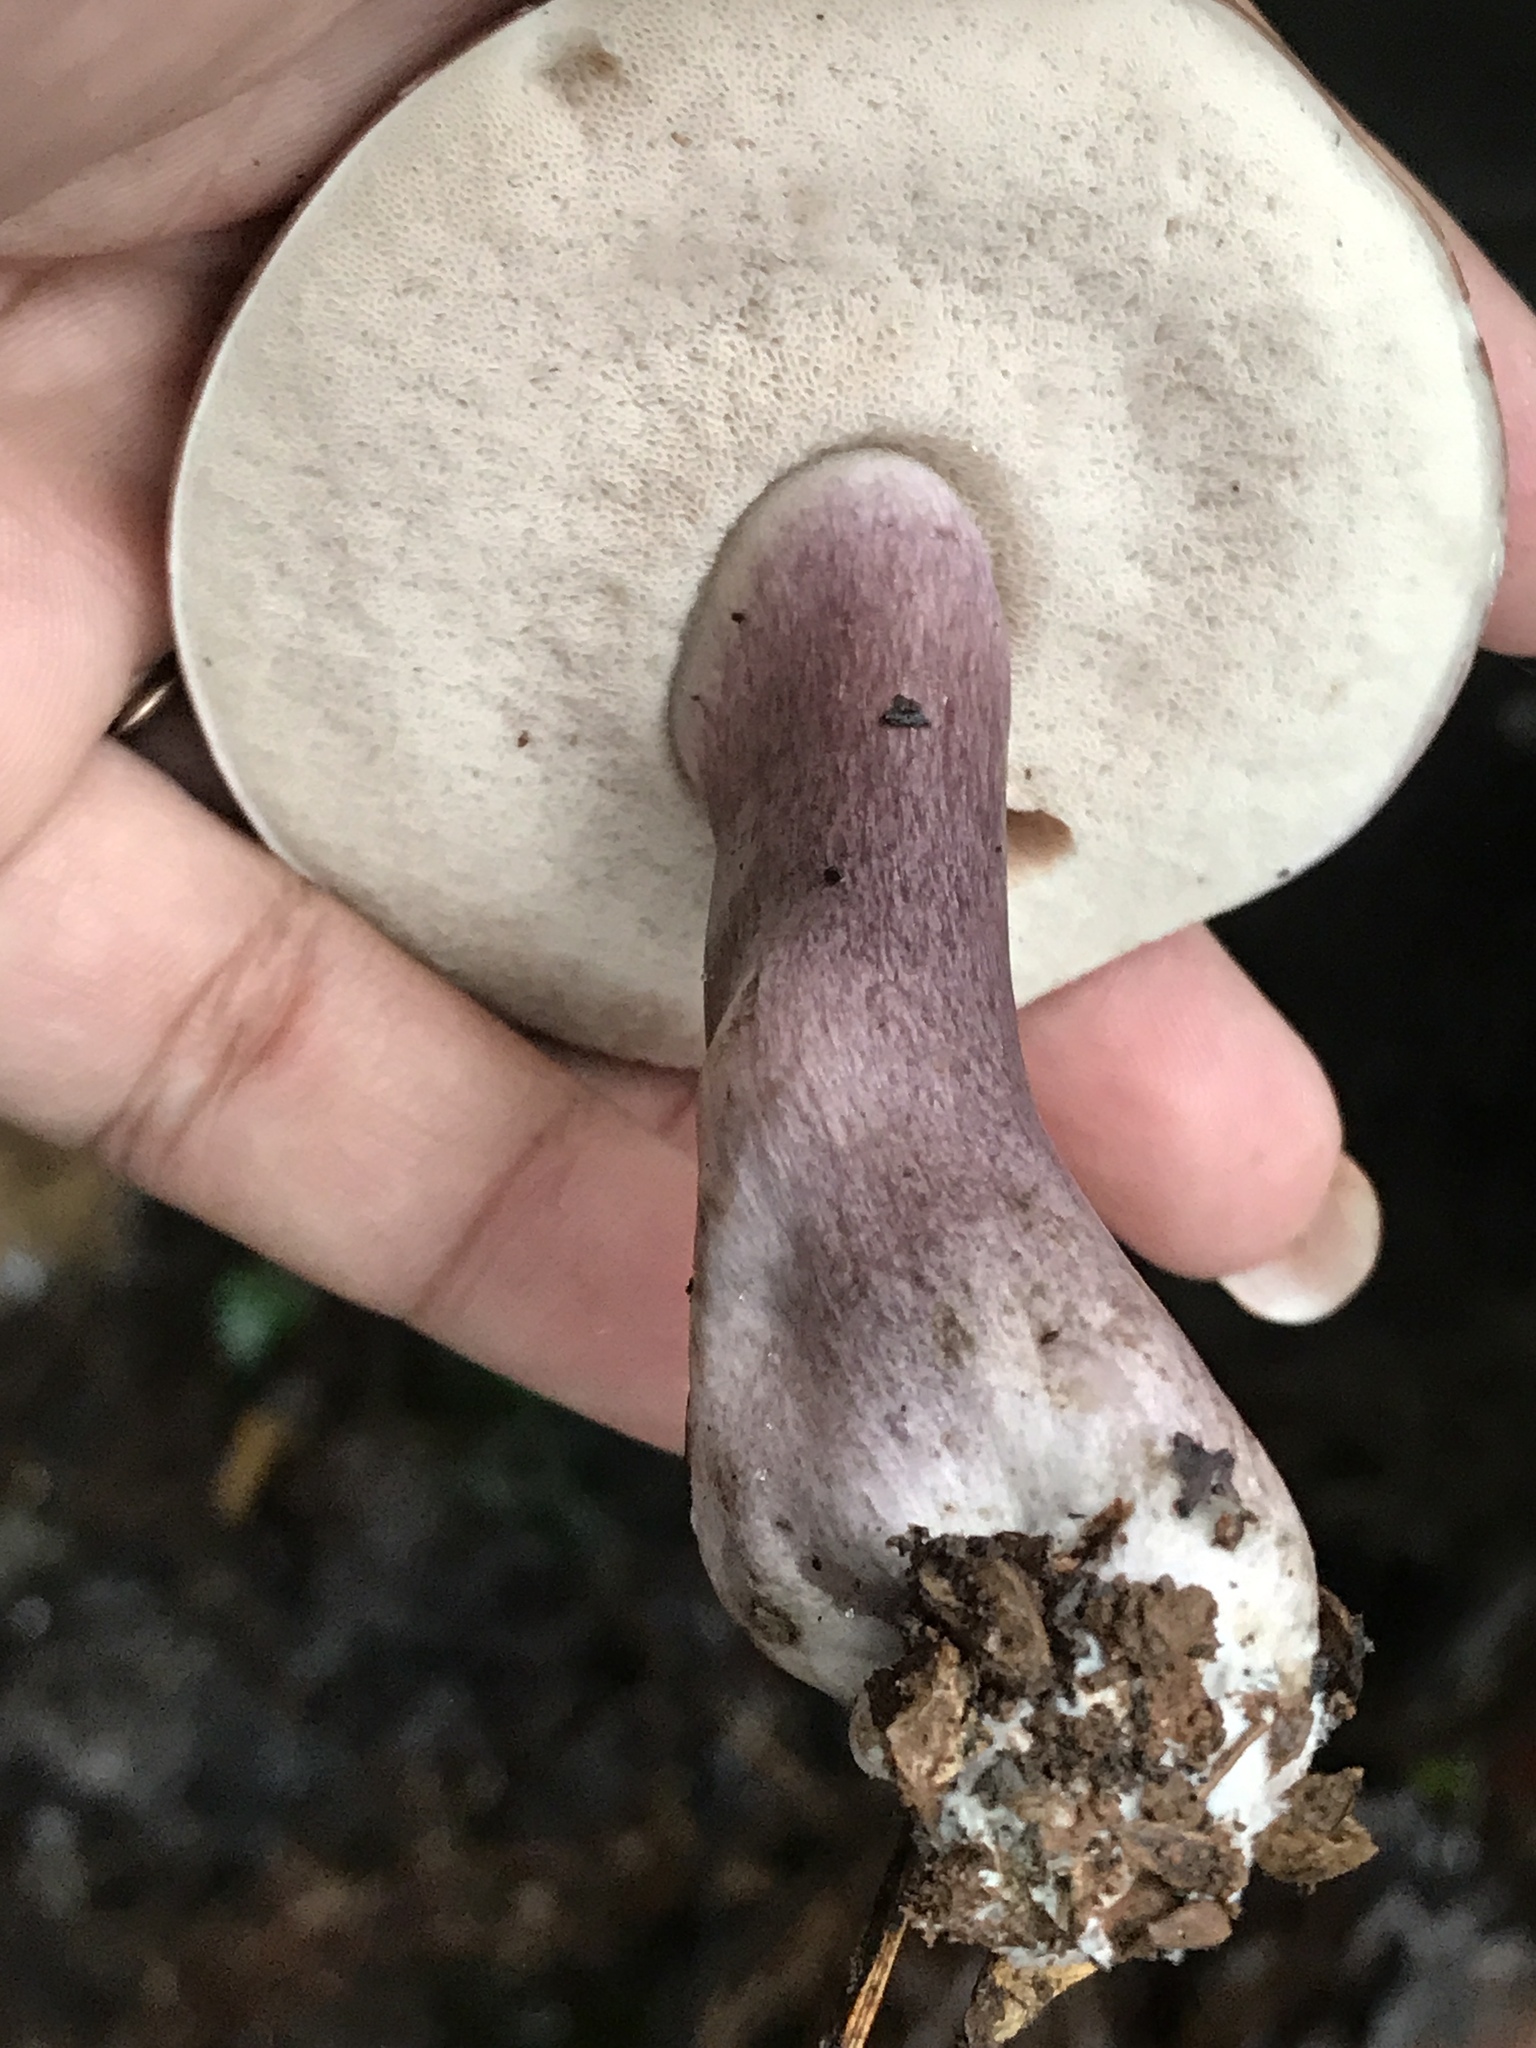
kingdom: Fungi
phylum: Basidiomycota
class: Agaricomycetes
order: Boletales
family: Boletaceae
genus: Tylopilus
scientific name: Tylopilus plumbeoviolaceus
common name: Violet gray bolete
